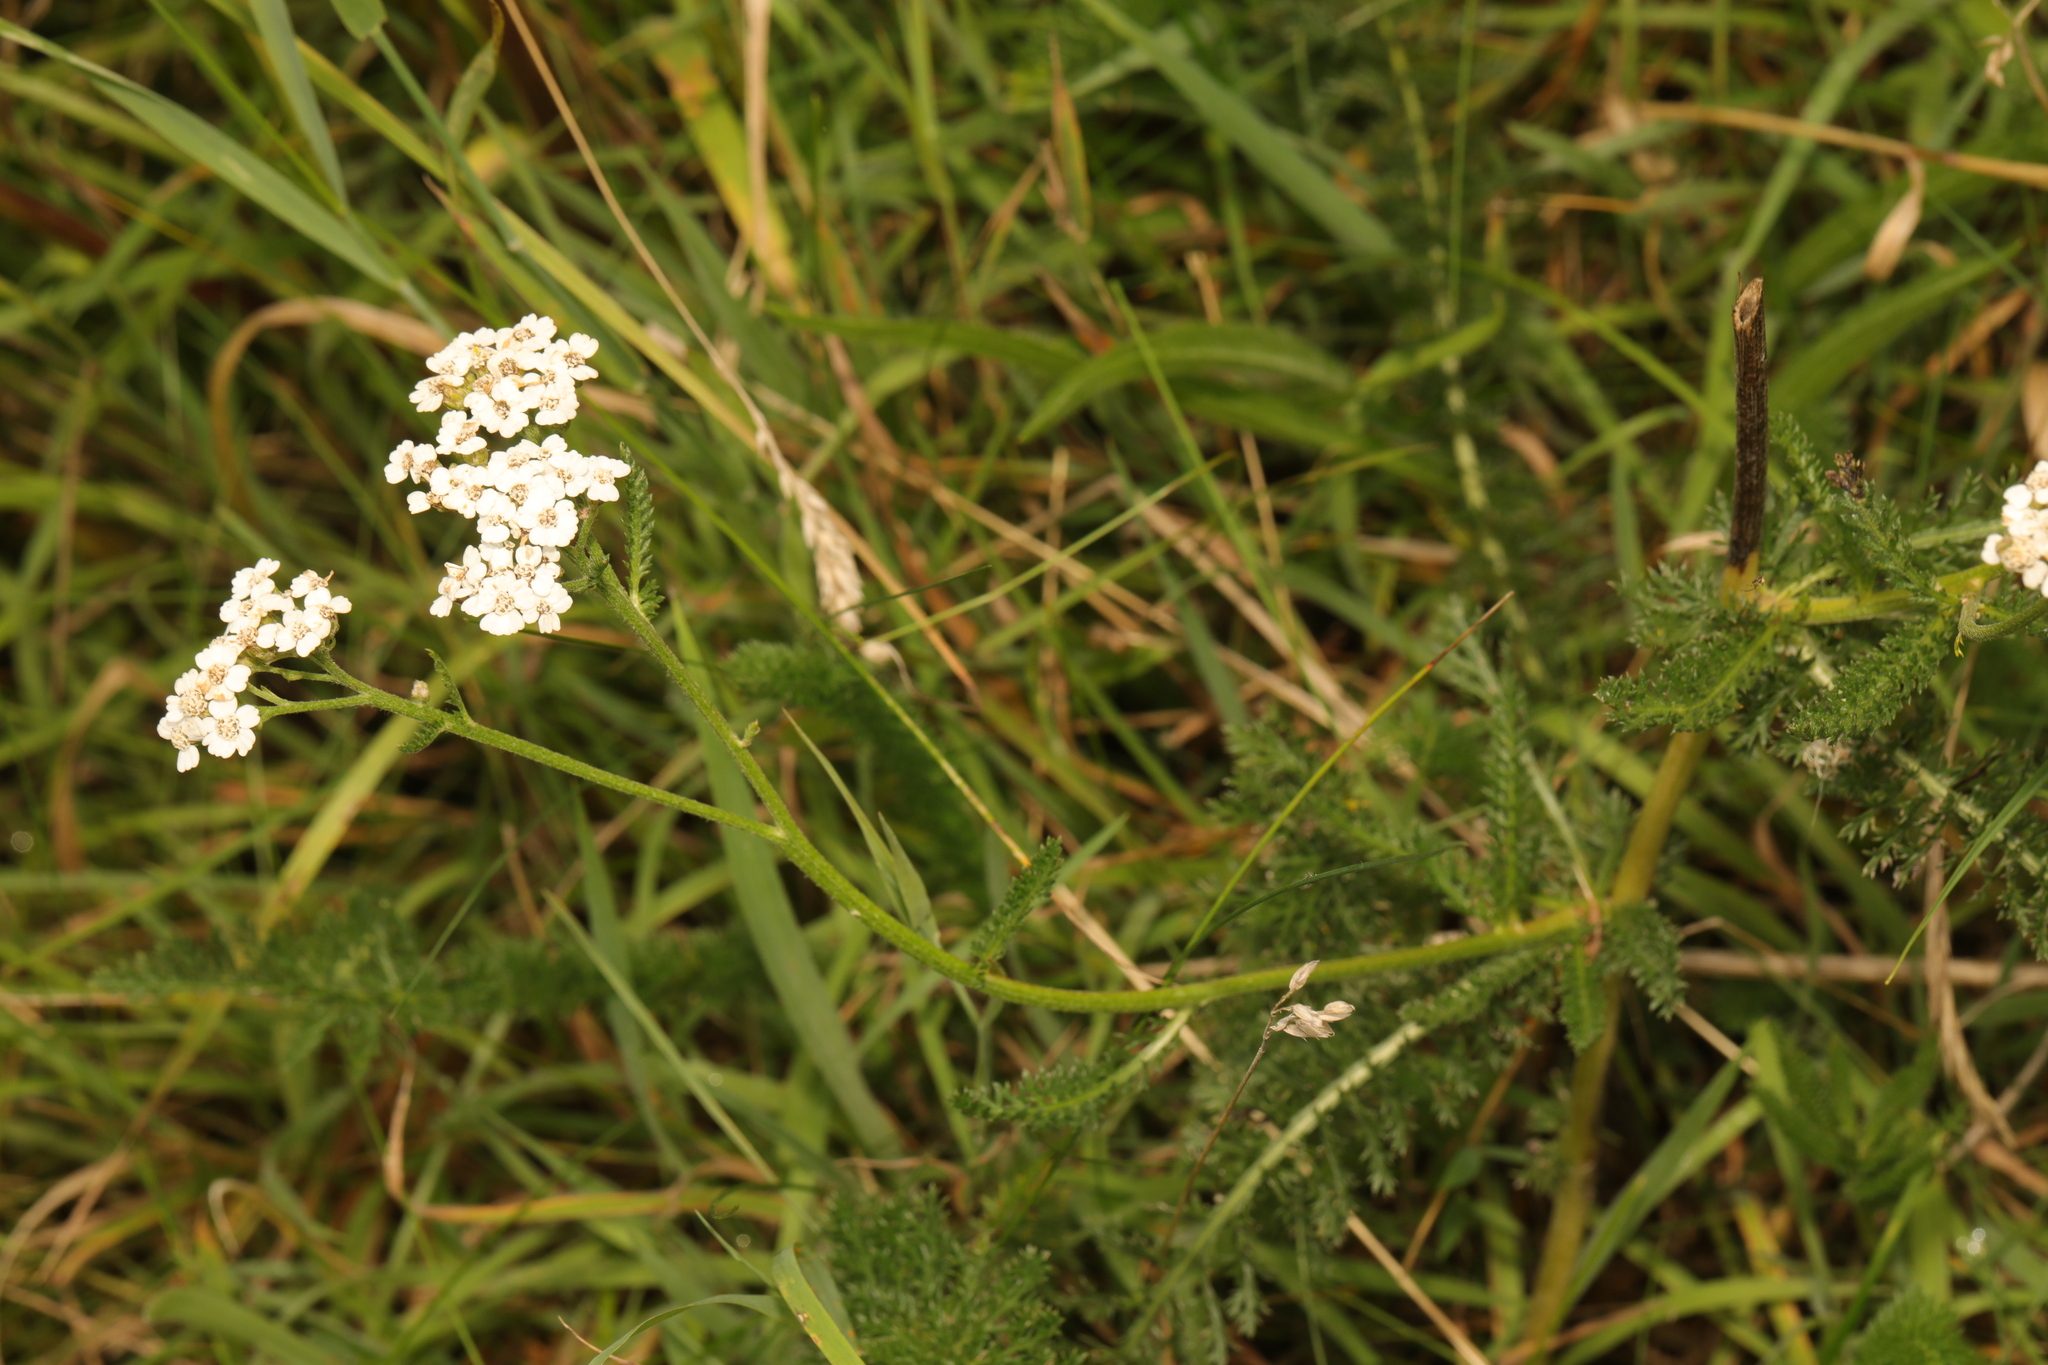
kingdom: Plantae
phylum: Tracheophyta
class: Magnoliopsida
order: Asterales
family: Asteraceae
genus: Achillea
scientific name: Achillea millefolium
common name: Yarrow
